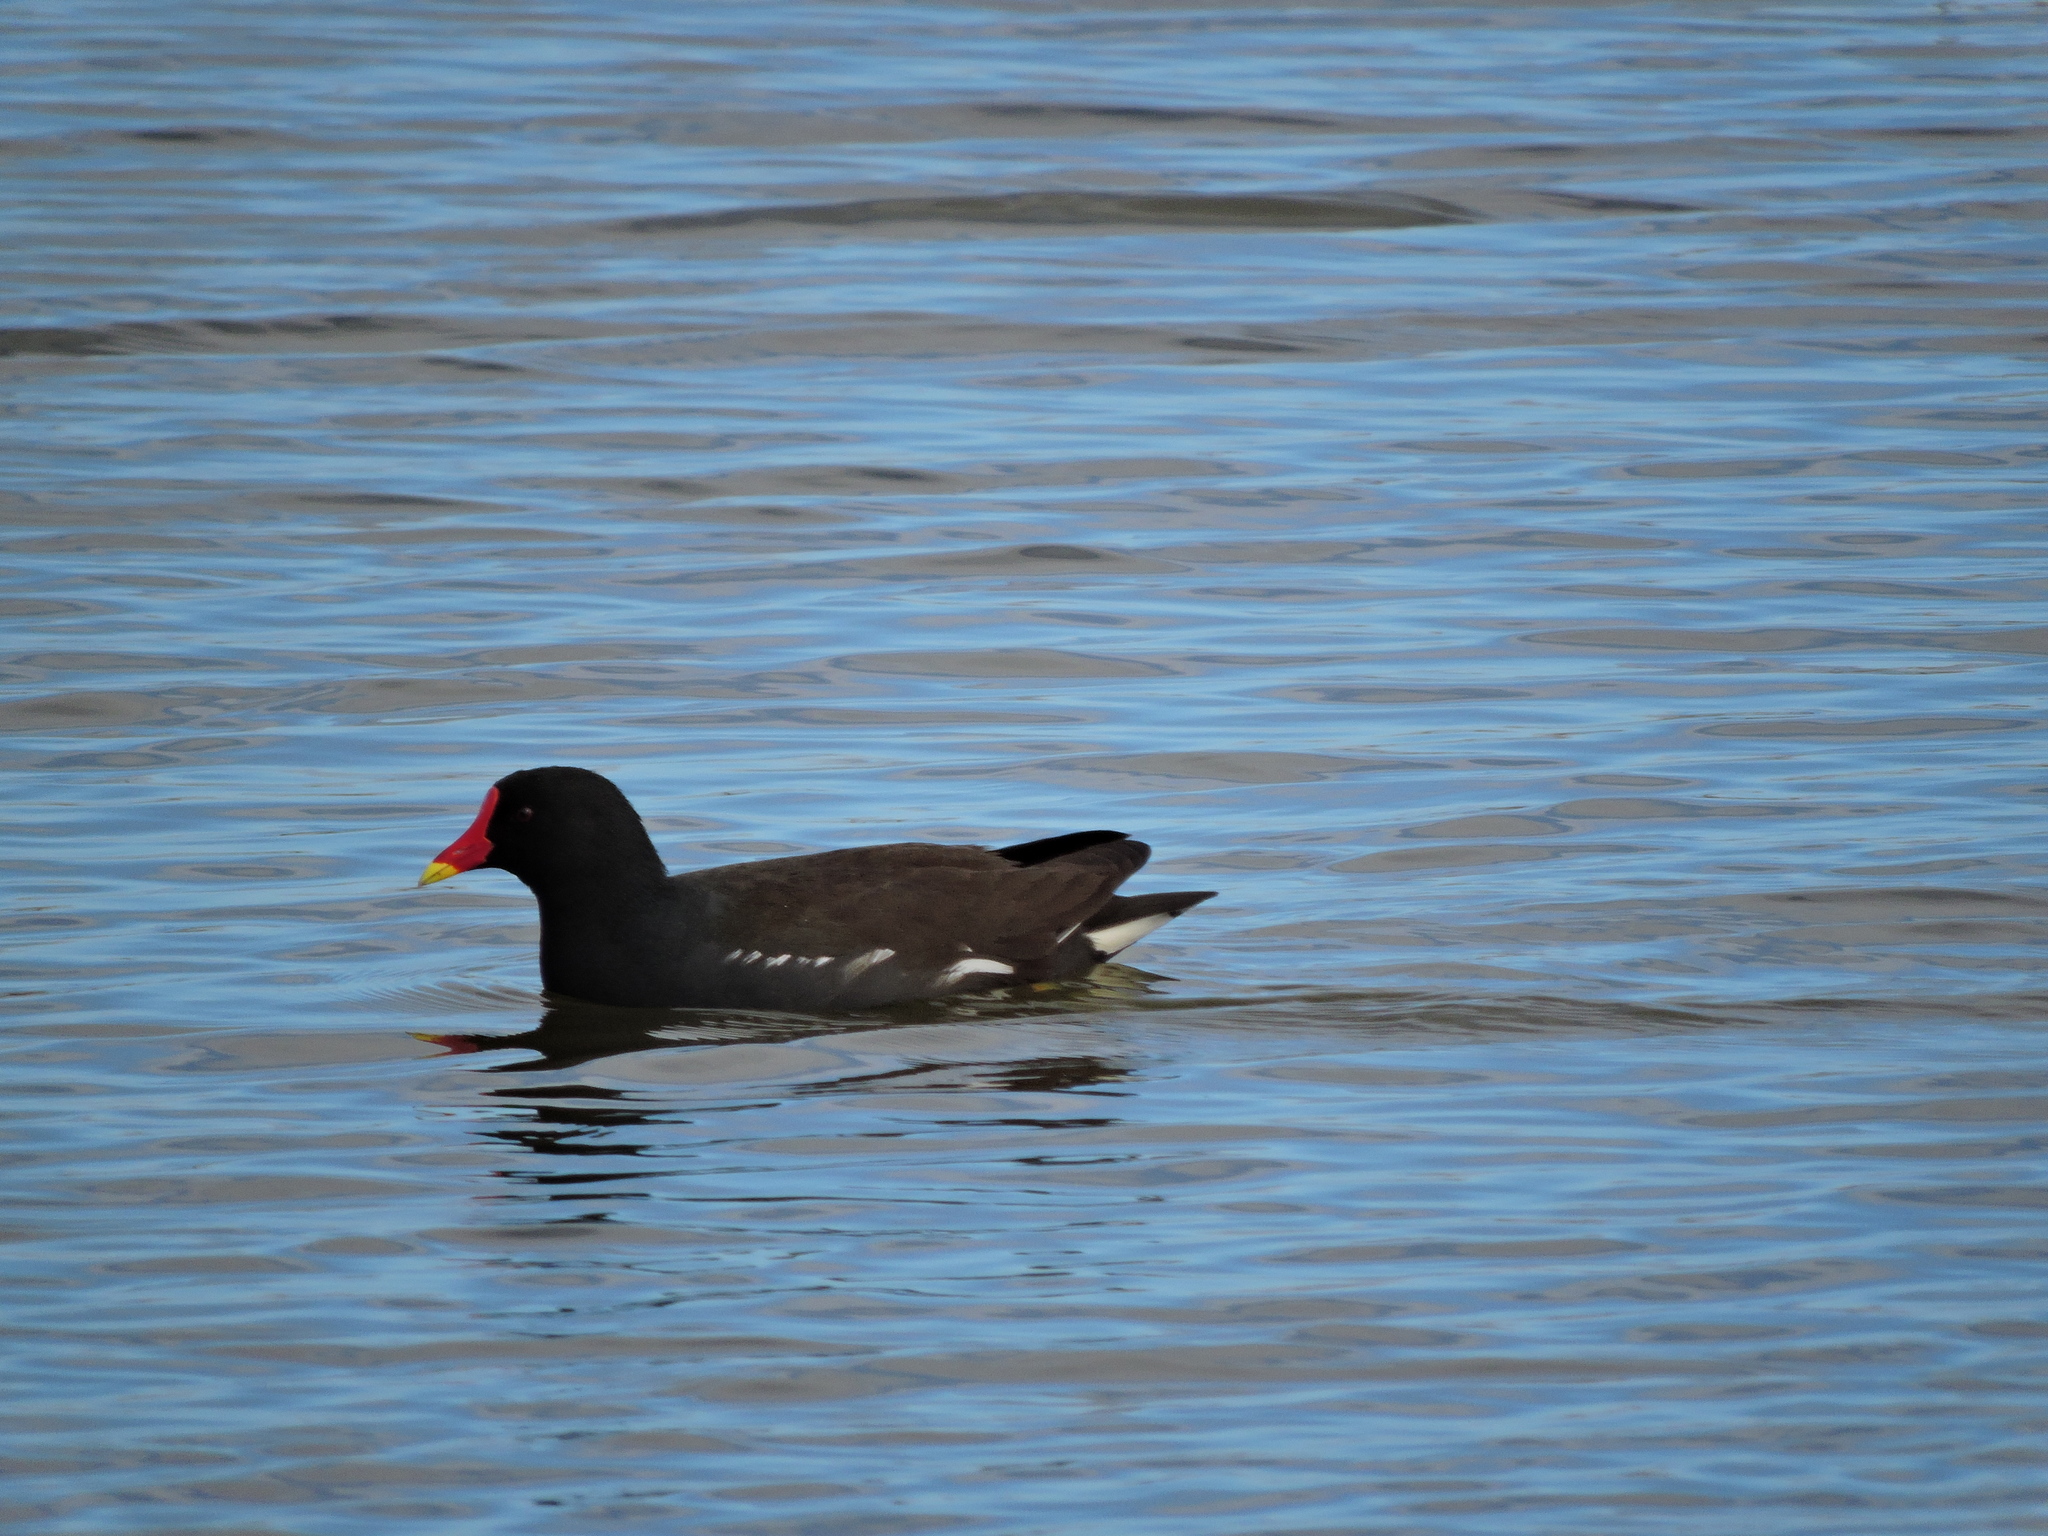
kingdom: Animalia
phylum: Chordata
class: Aves
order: Gruiformes
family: Rallidae
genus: Gallinula
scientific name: Gallinula chloropus
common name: Common moorhen
